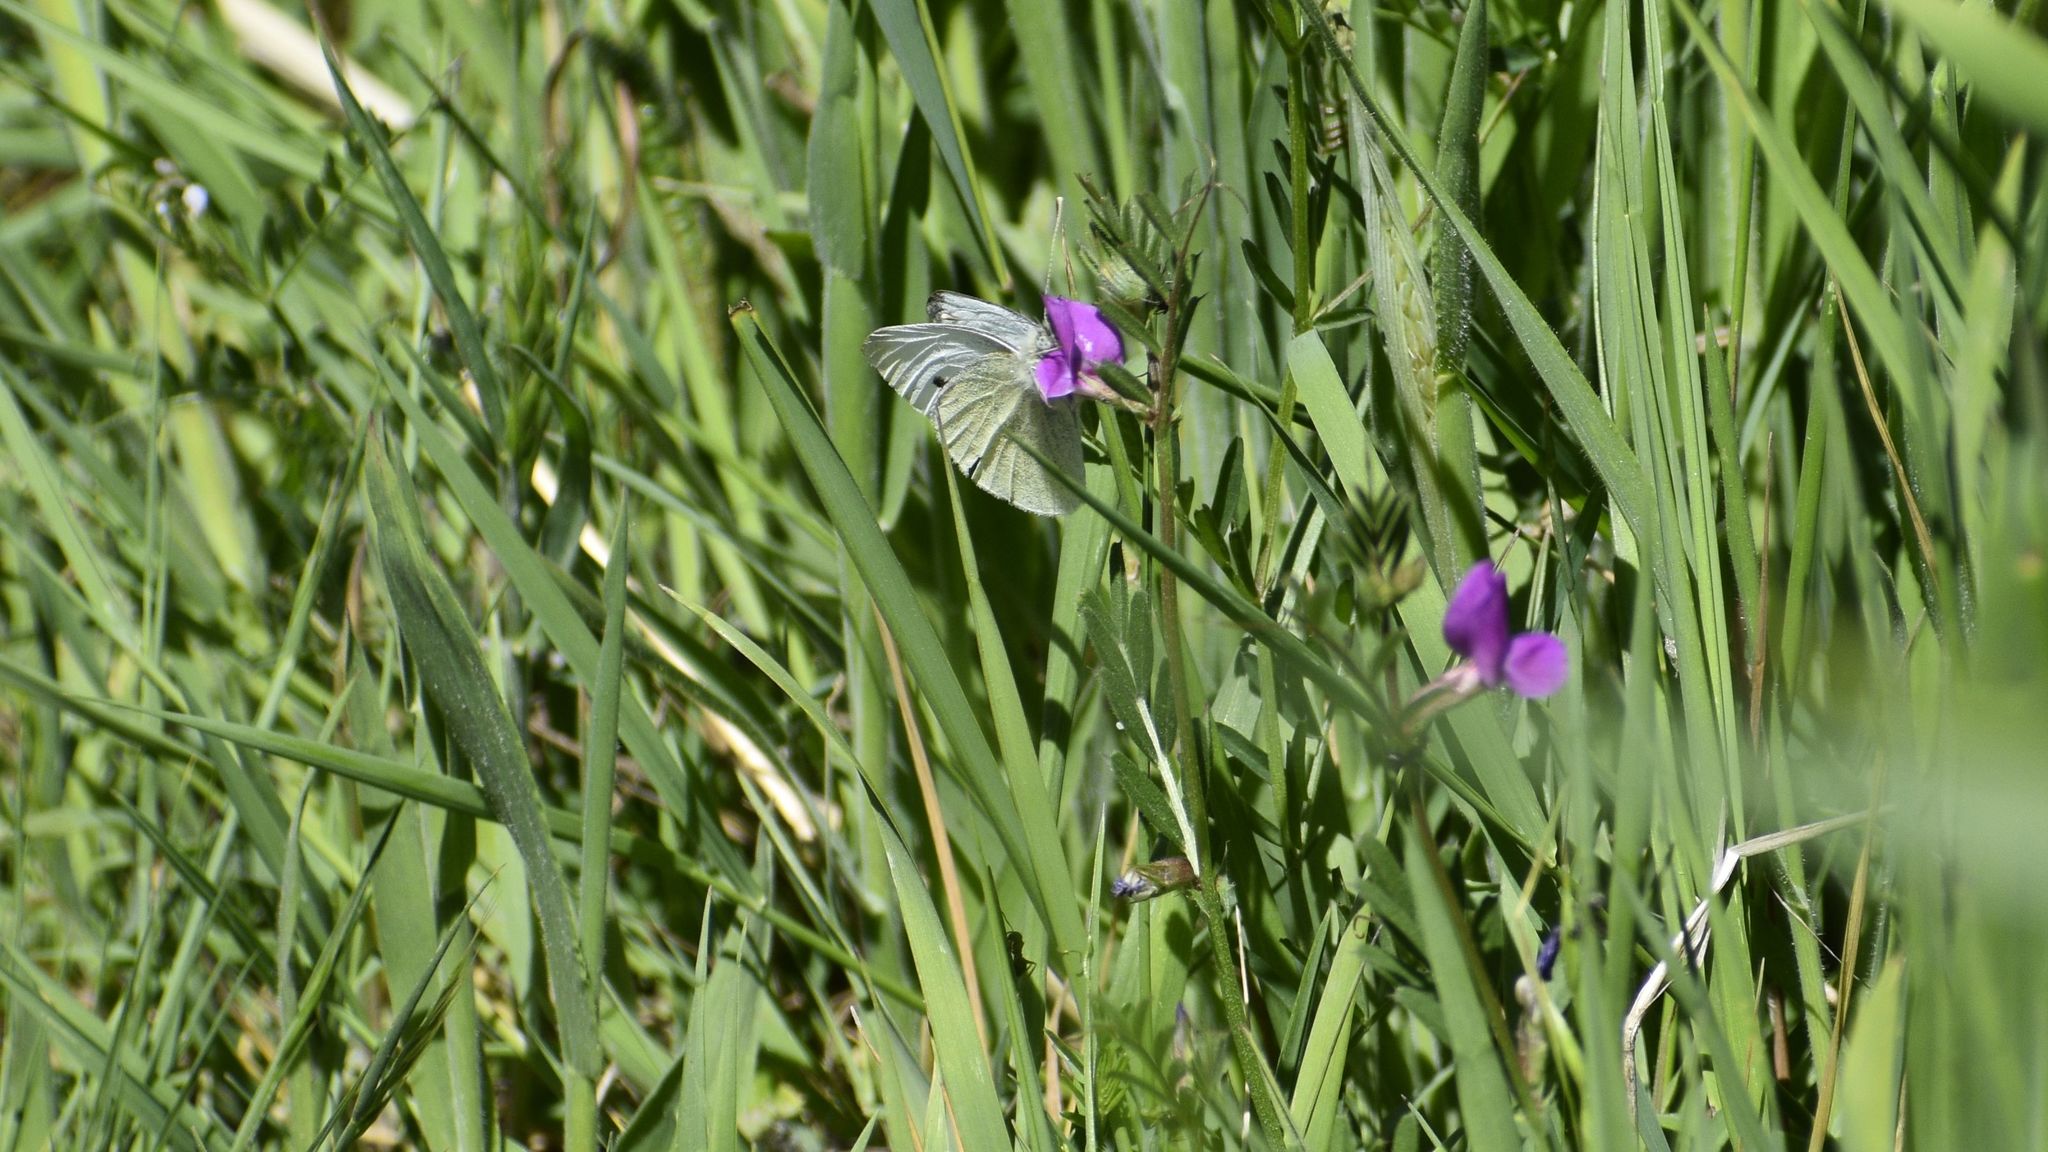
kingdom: Animalia
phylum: Arthropoda
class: Insecta
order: Lepidoptera
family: Pieridae
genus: Pieris
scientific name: Pieris rapae
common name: Small white
